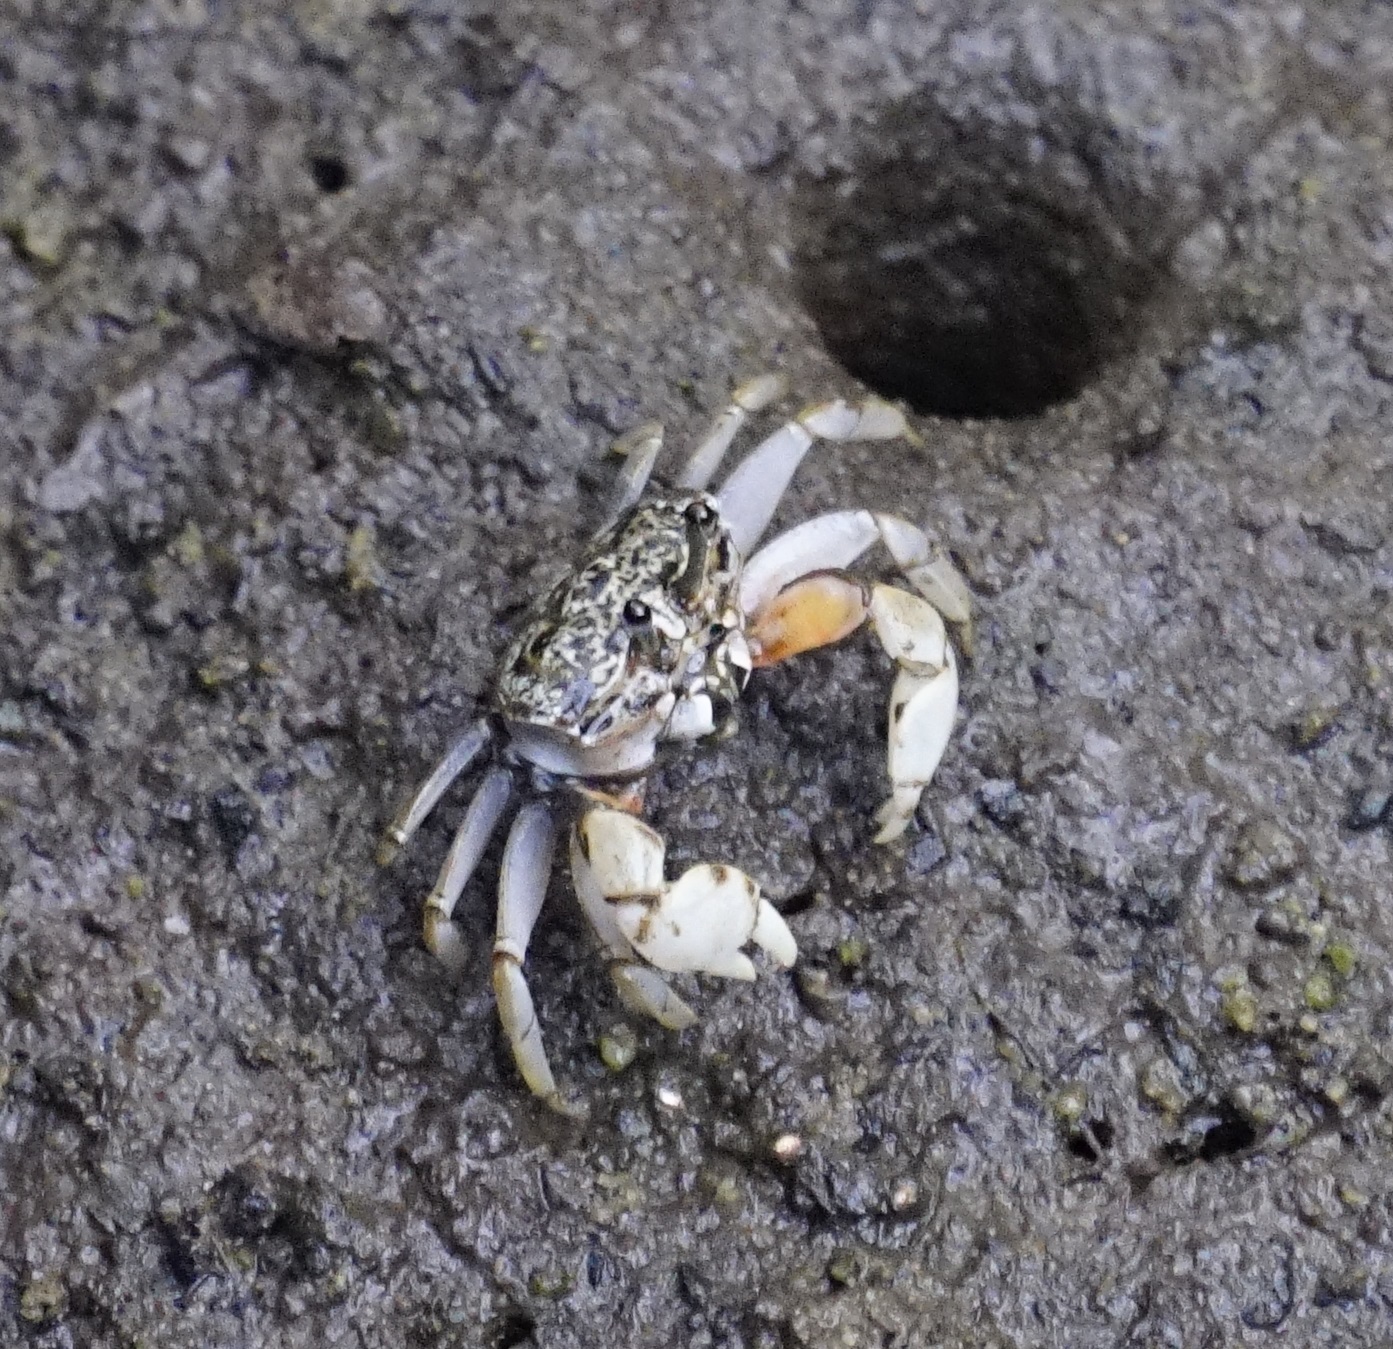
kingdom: Animalia
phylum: Arthropoda
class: Malacostraca
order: Decapoda
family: Heloeciidae
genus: Heloecius
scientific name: Heloecius cordiformis
